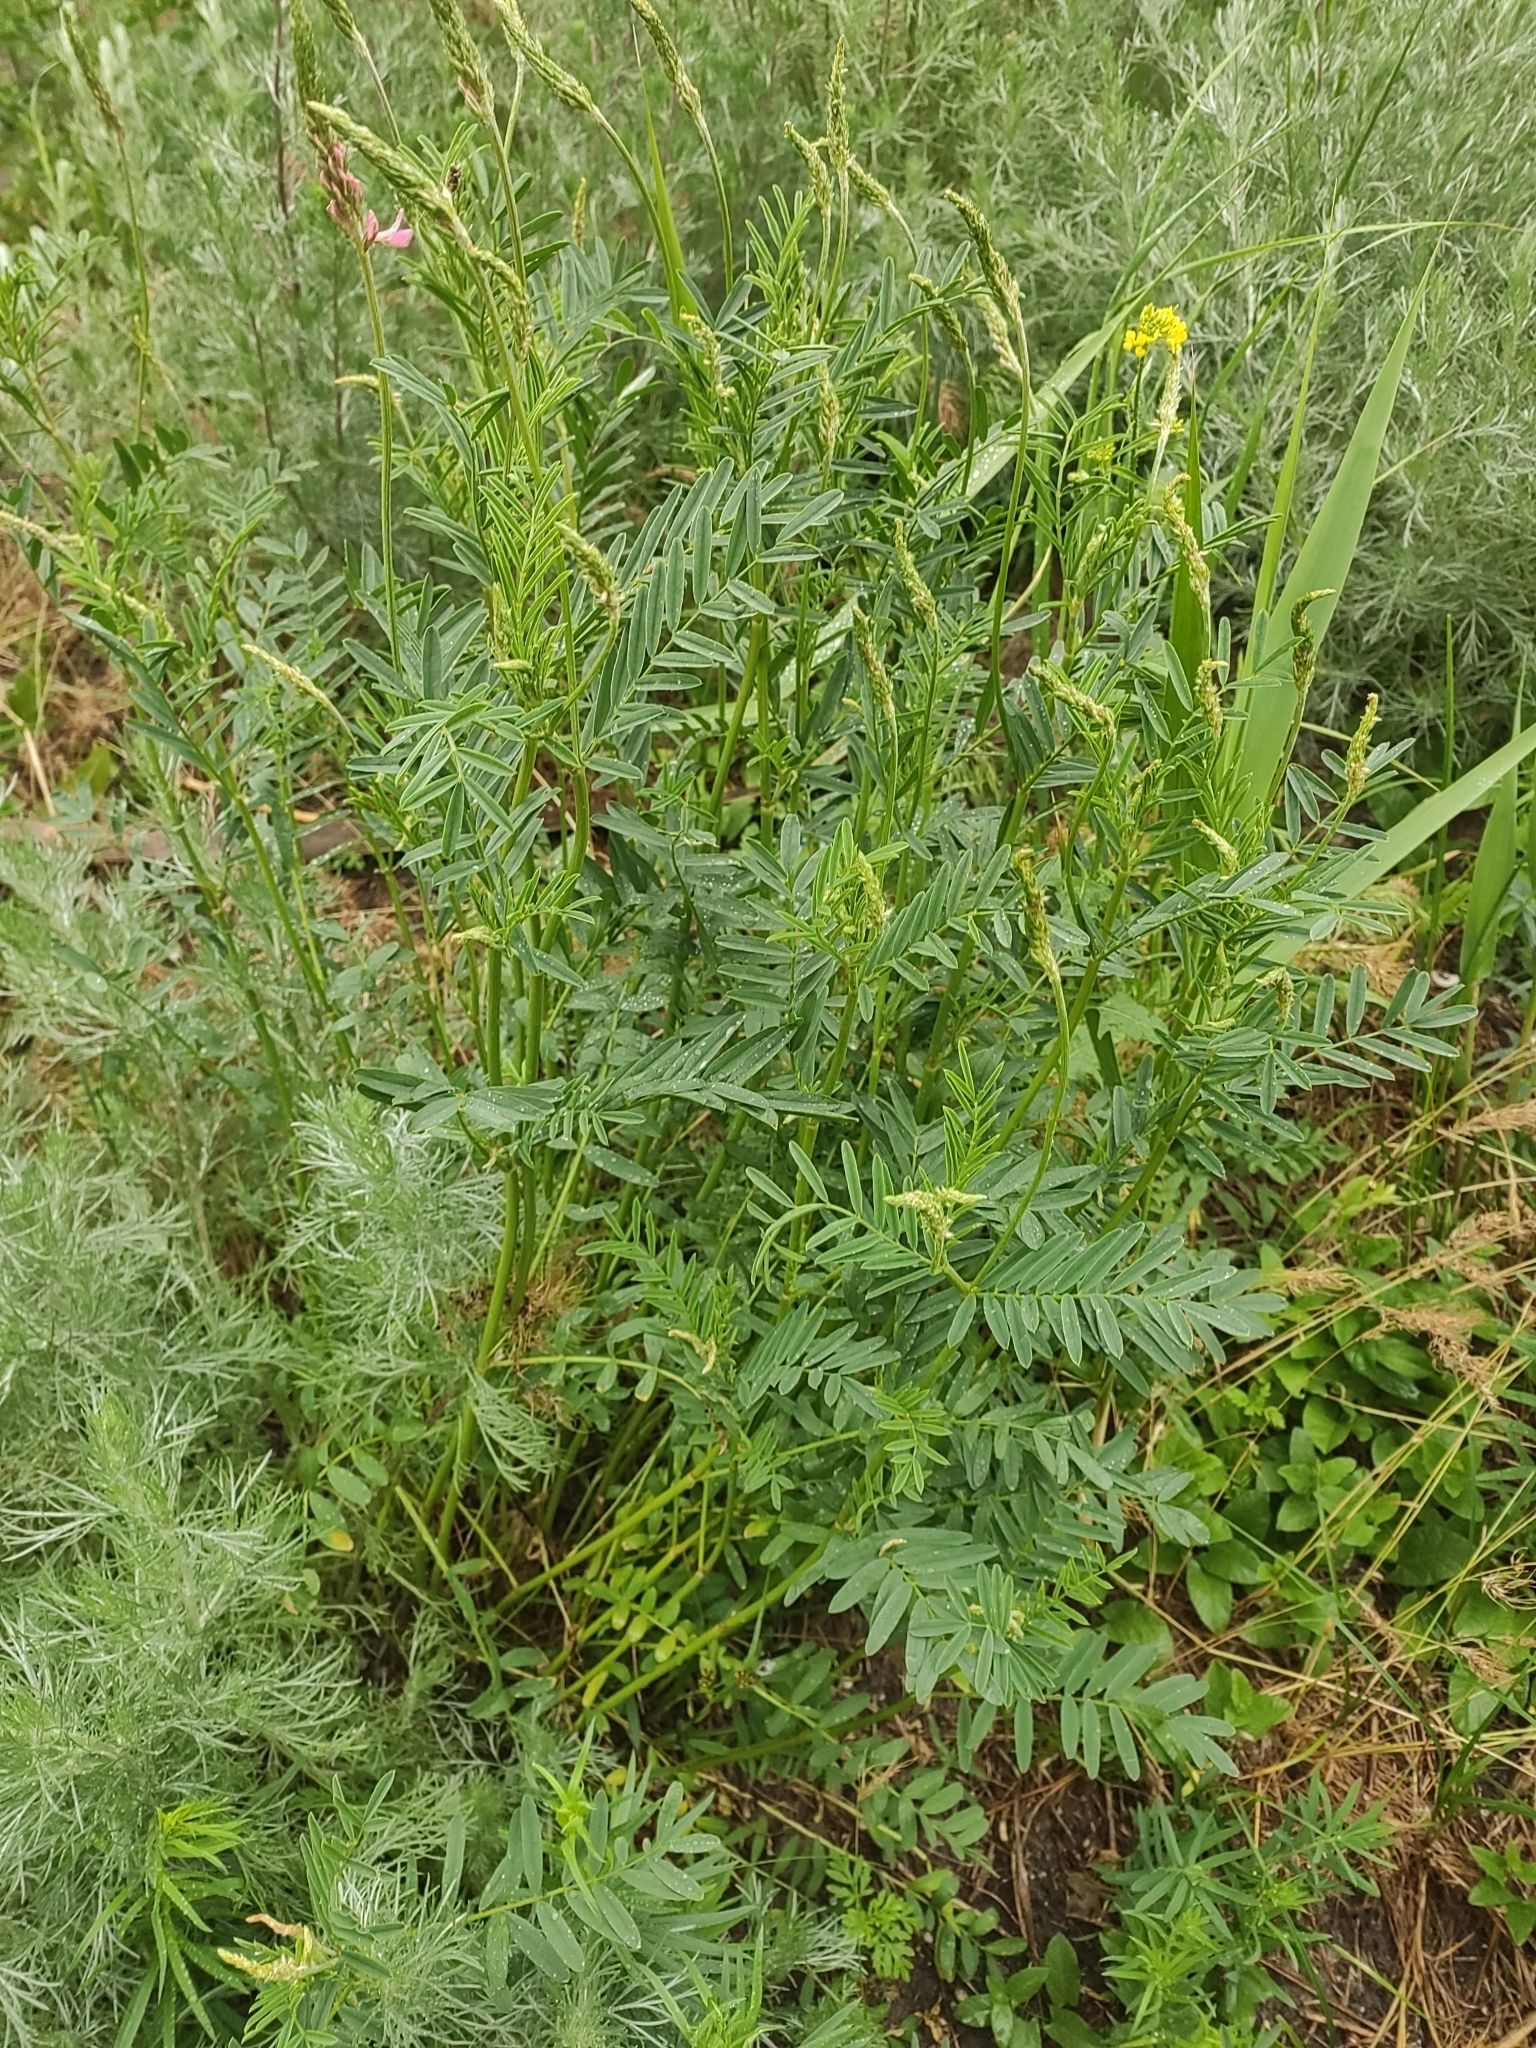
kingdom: Plantae
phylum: Tracheophyta
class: Magnoliopsida
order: Fabales
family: Fabaceae
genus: Onobrychis
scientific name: Onobrychis viciifolia
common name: Sainfoin
